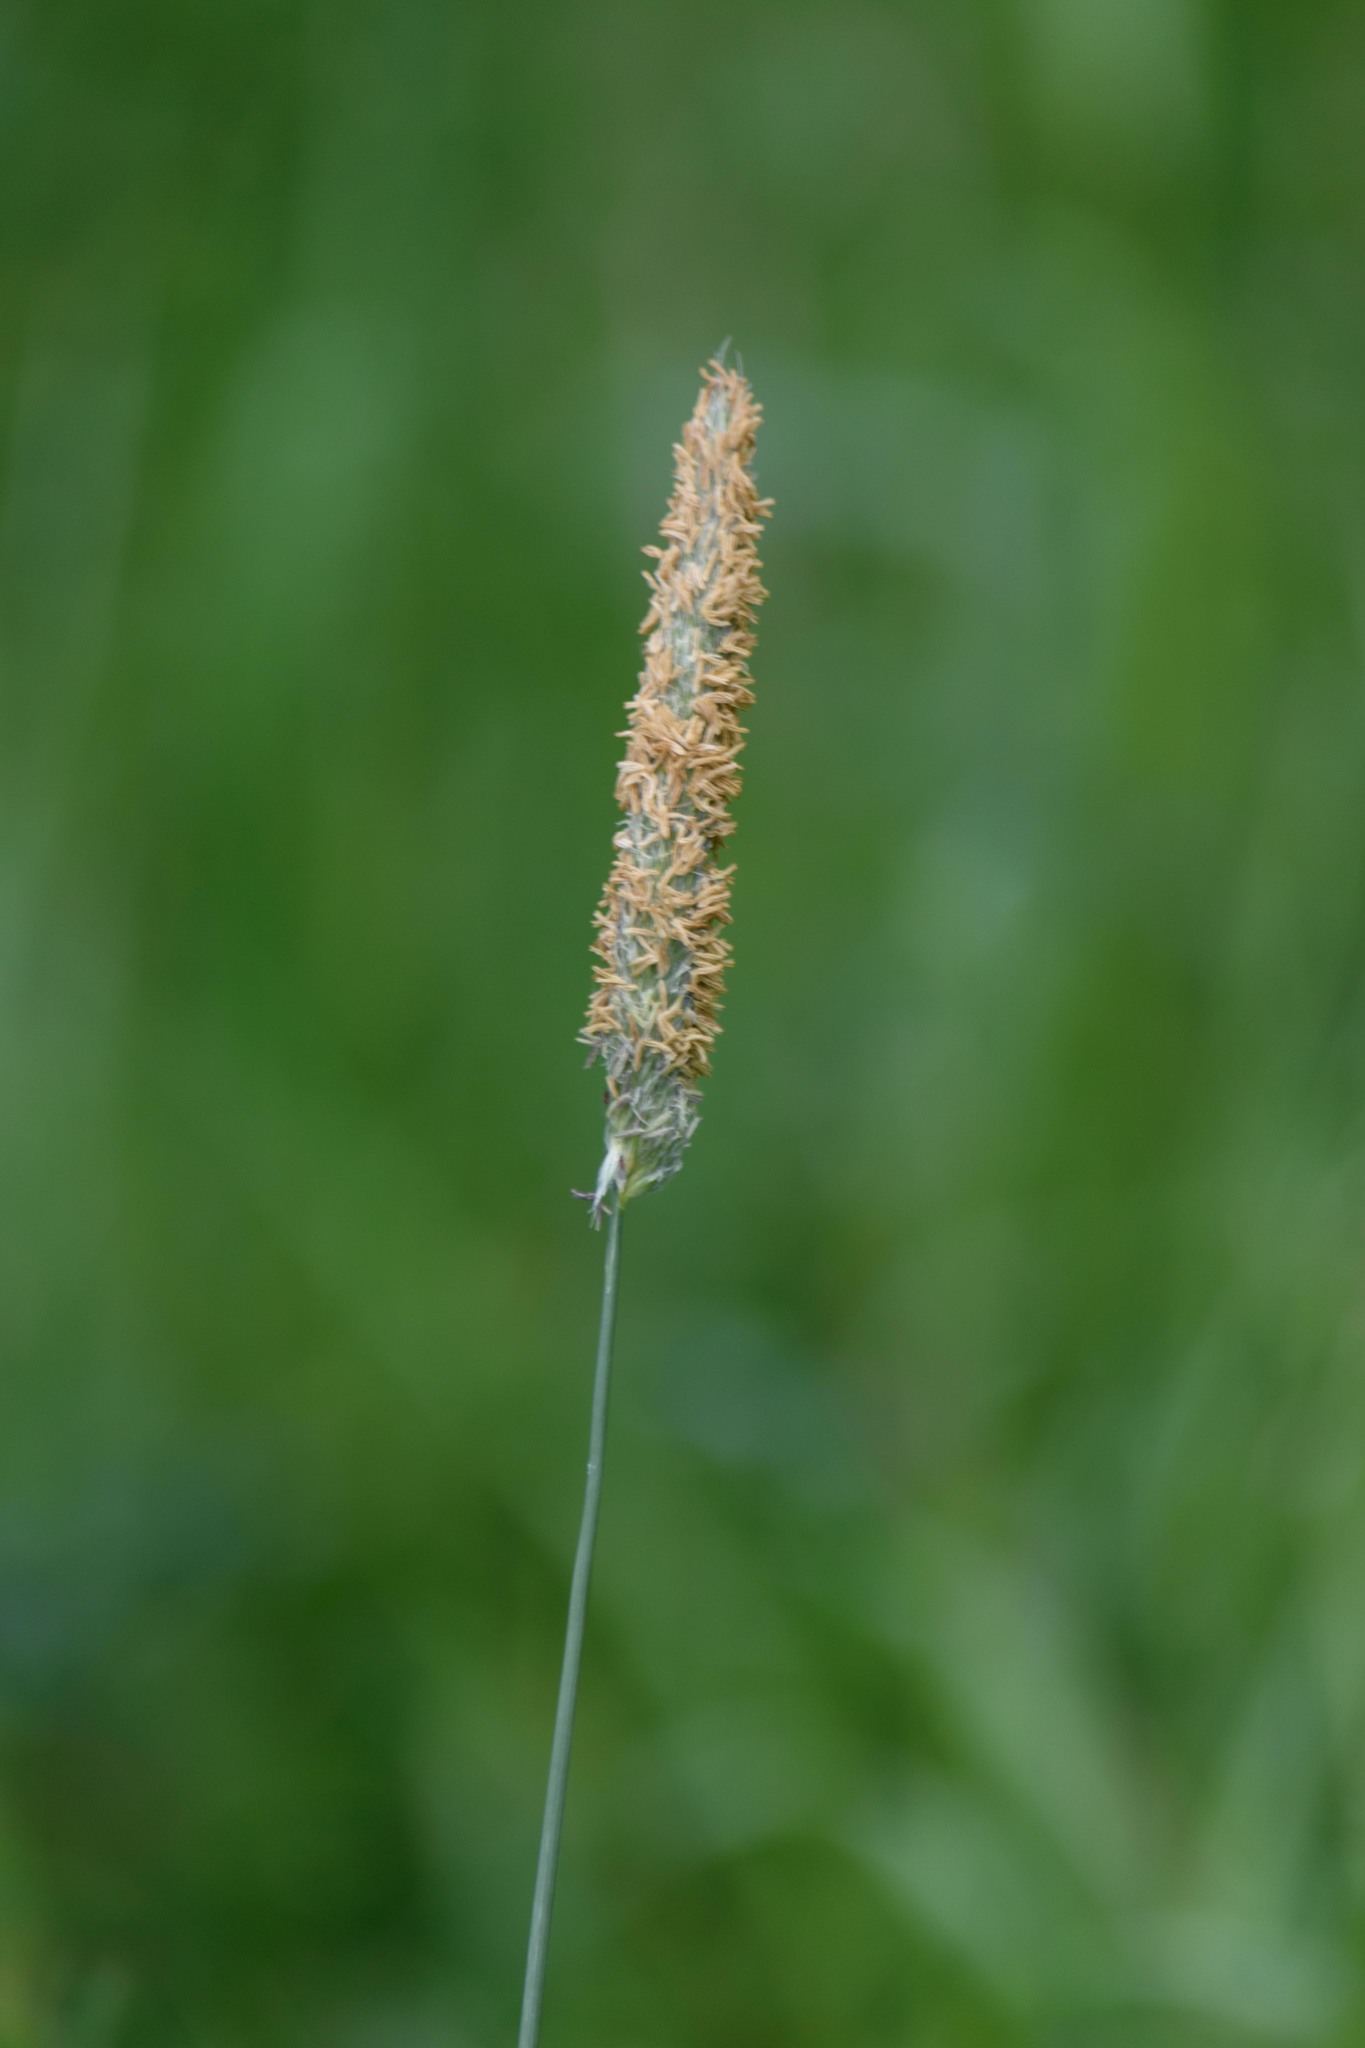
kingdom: Plantae
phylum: Tracheophyta
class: Liliopsida
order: Poales
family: Poaceae
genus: Alopecurus
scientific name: Alopecurus pratensis
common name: Meadow foxtail
